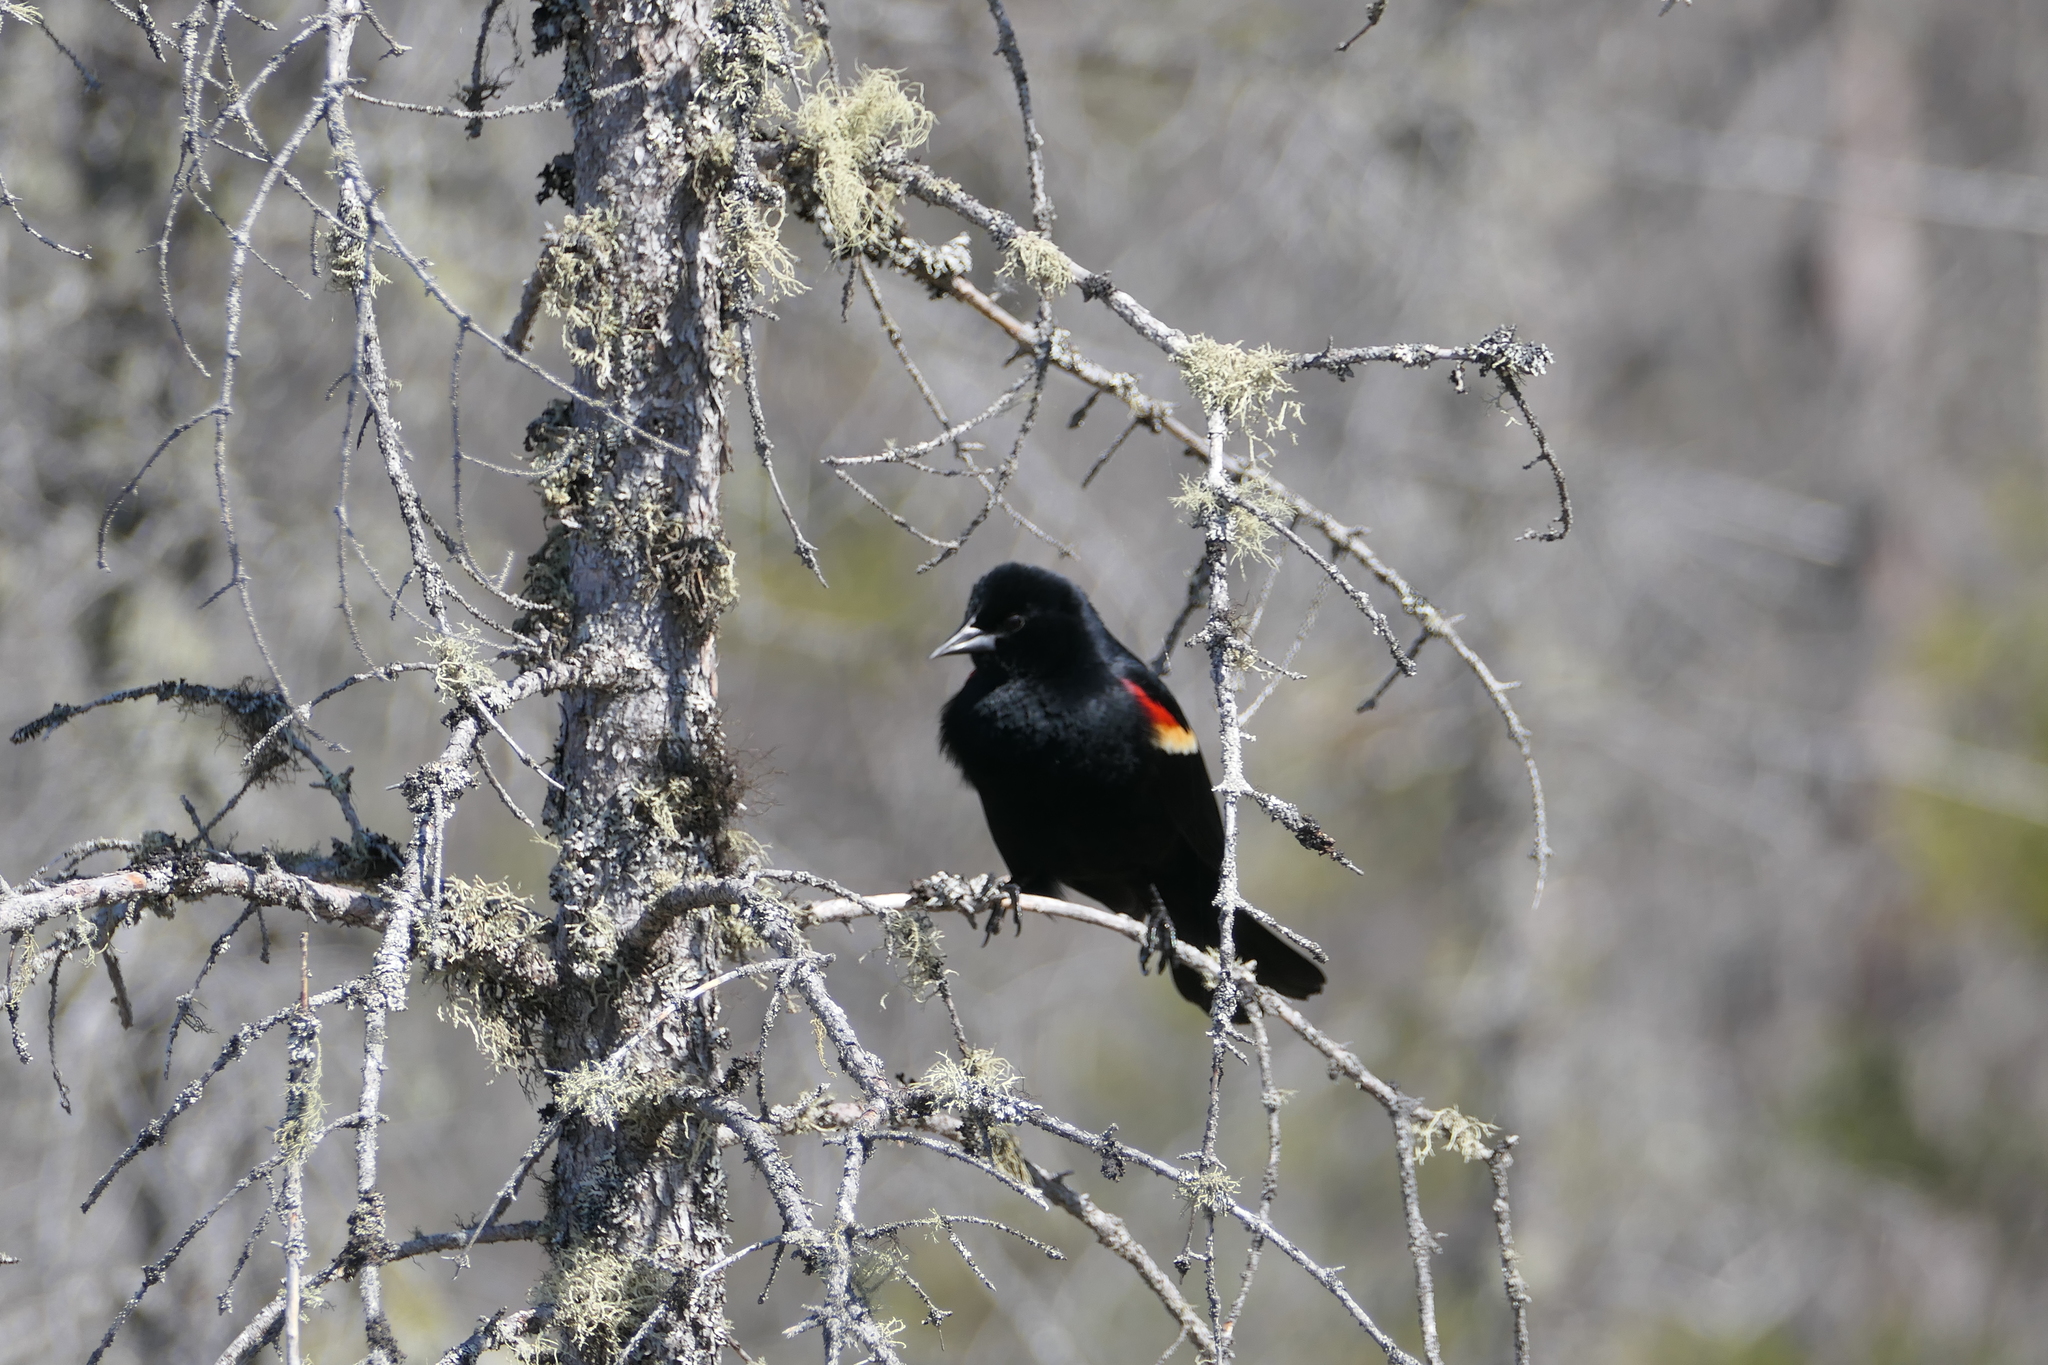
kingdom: Animalia
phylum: Chordata
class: Aves
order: Passeriformes
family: Icteridae
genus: Agelaius
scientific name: Agelaius phoeniceus
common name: Red-winged blackbird
